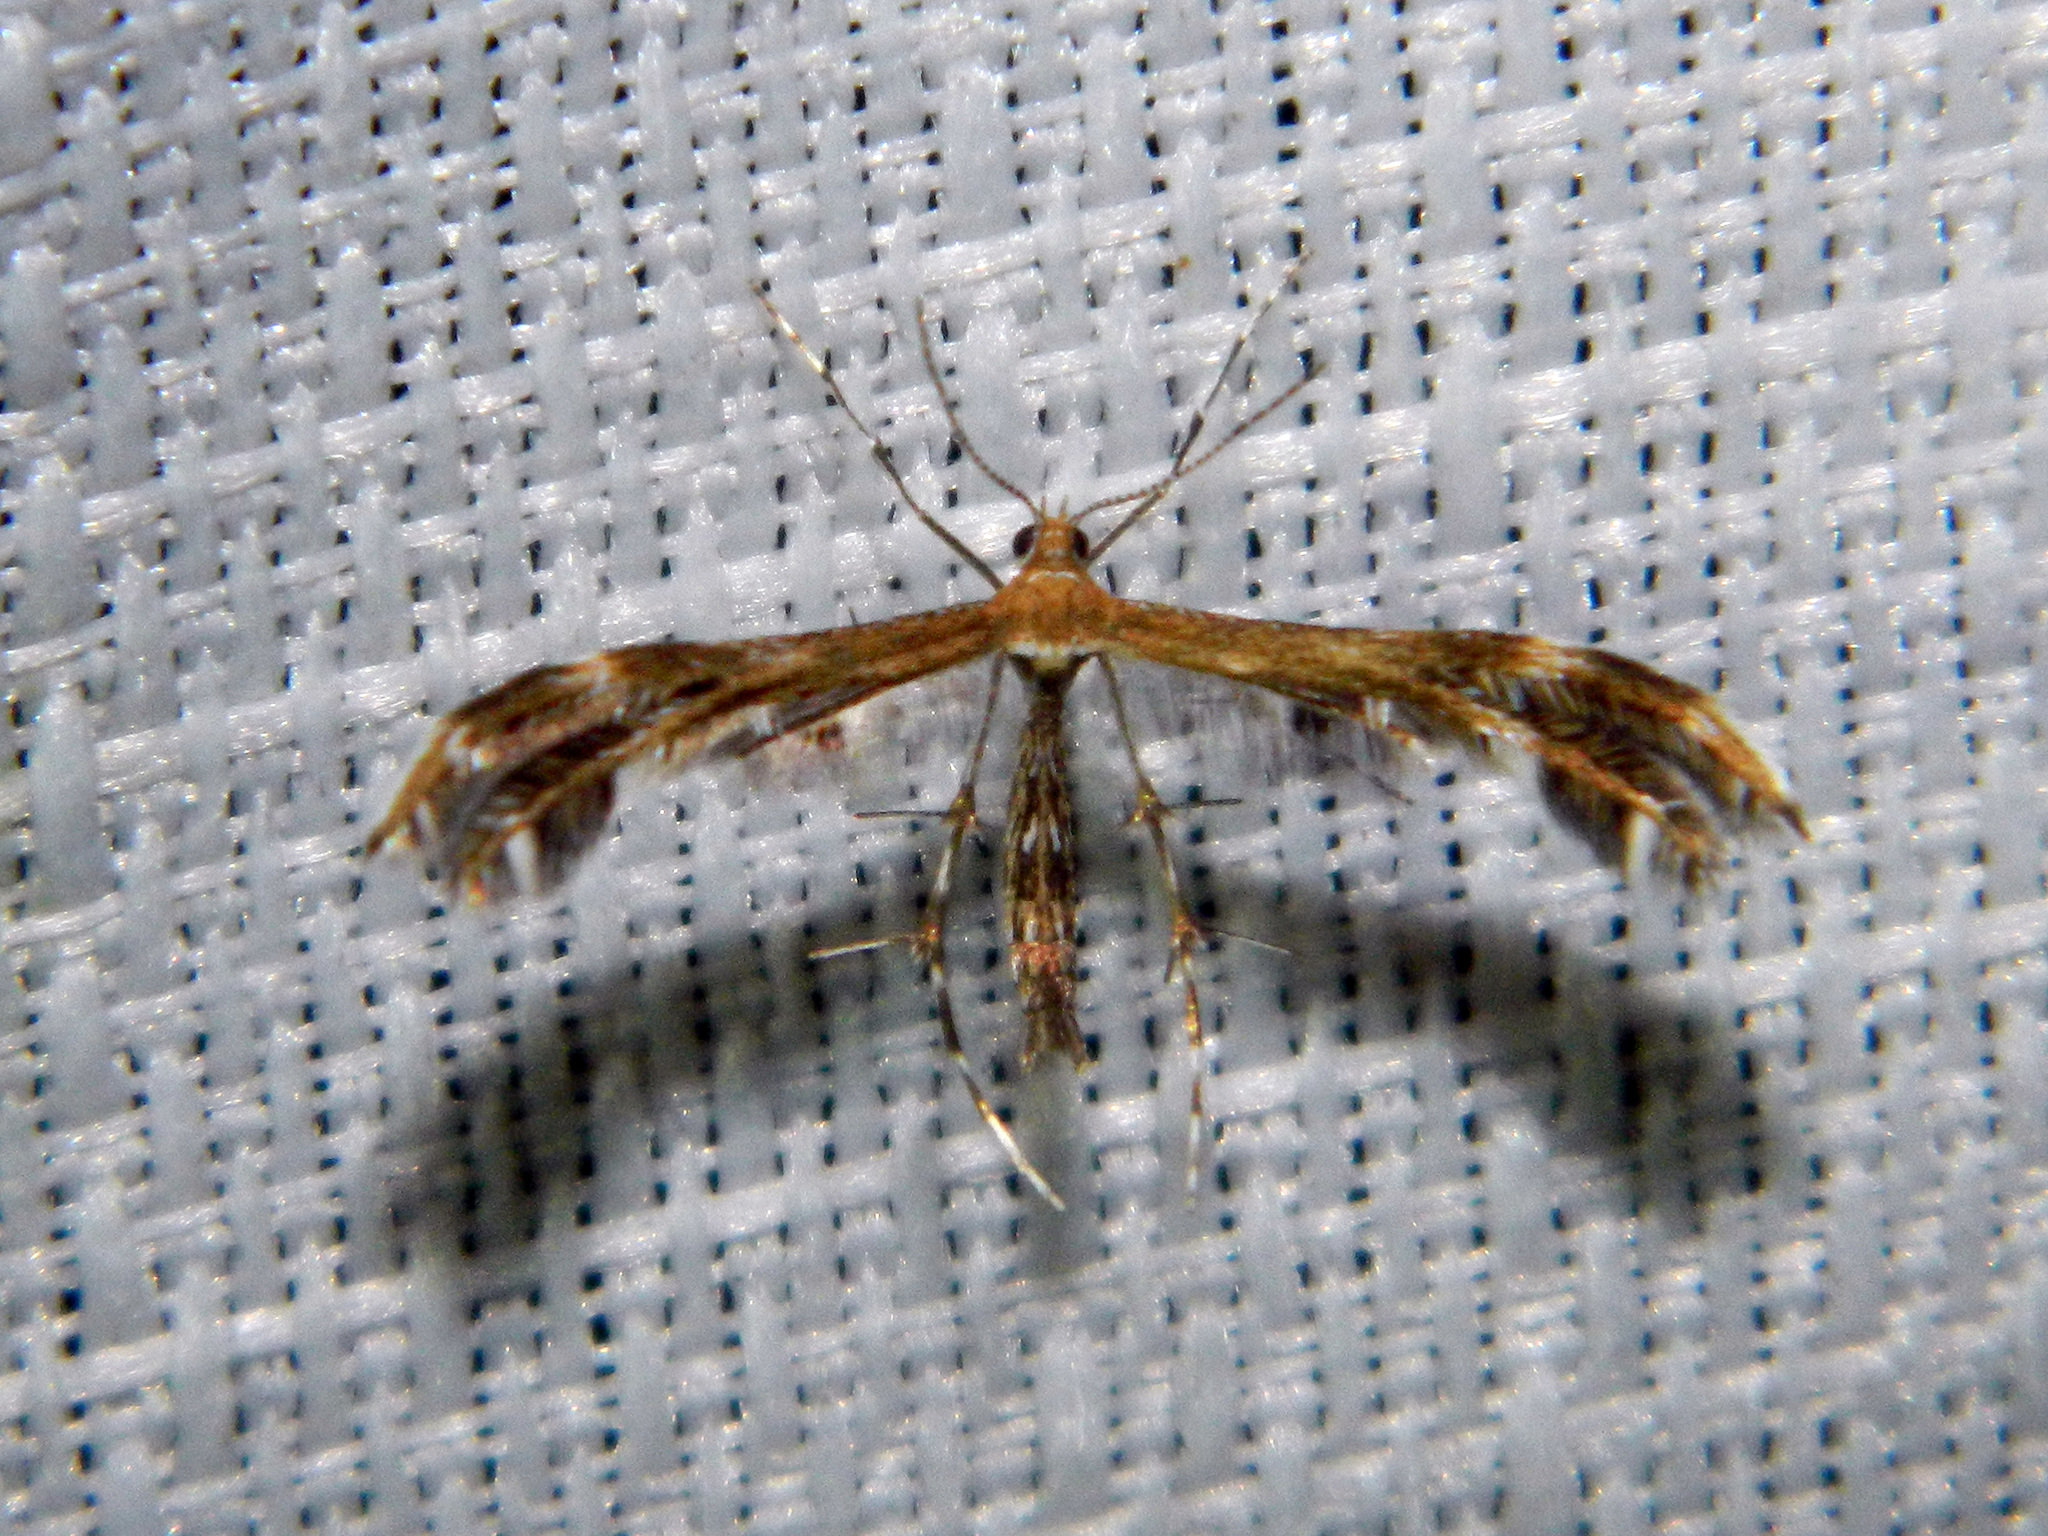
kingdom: Animalia
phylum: Arthropoda
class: Insecta
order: Lepidoptera
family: Pterophoridae
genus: Dejongia
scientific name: Dejongia lobidactylus
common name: Lobed plume moth
